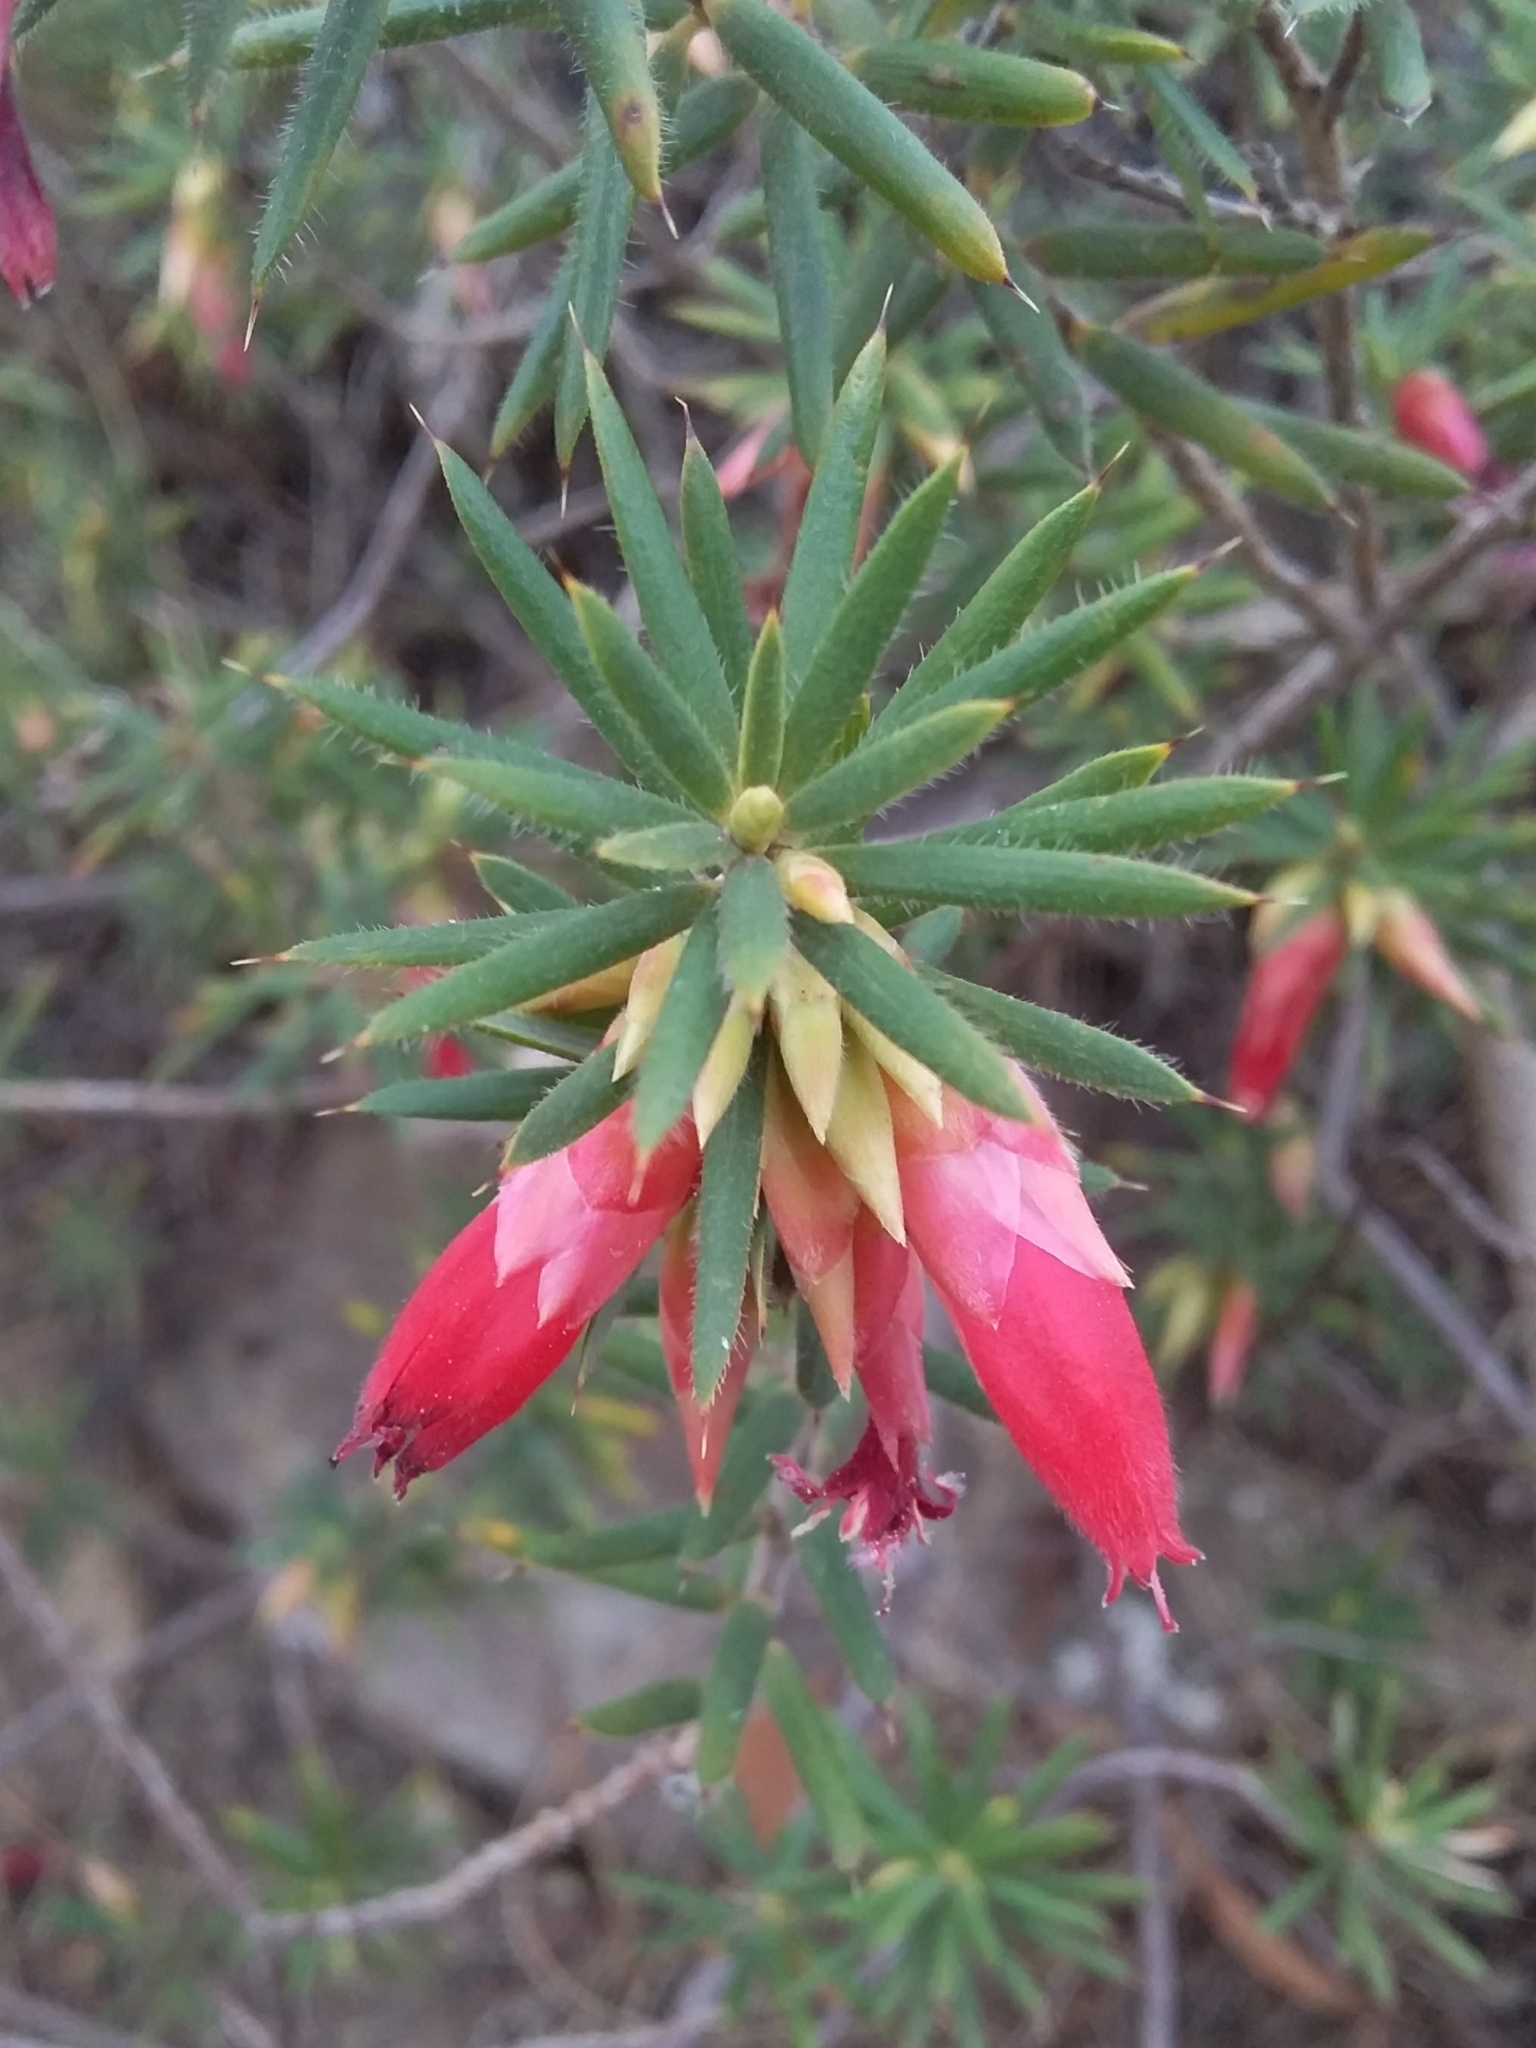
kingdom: Plantae
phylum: Tracheophyta
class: Magnoliopsida
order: Ericales
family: Ericaceae
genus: Stenanthera
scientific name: Stenanthera conostephioides
